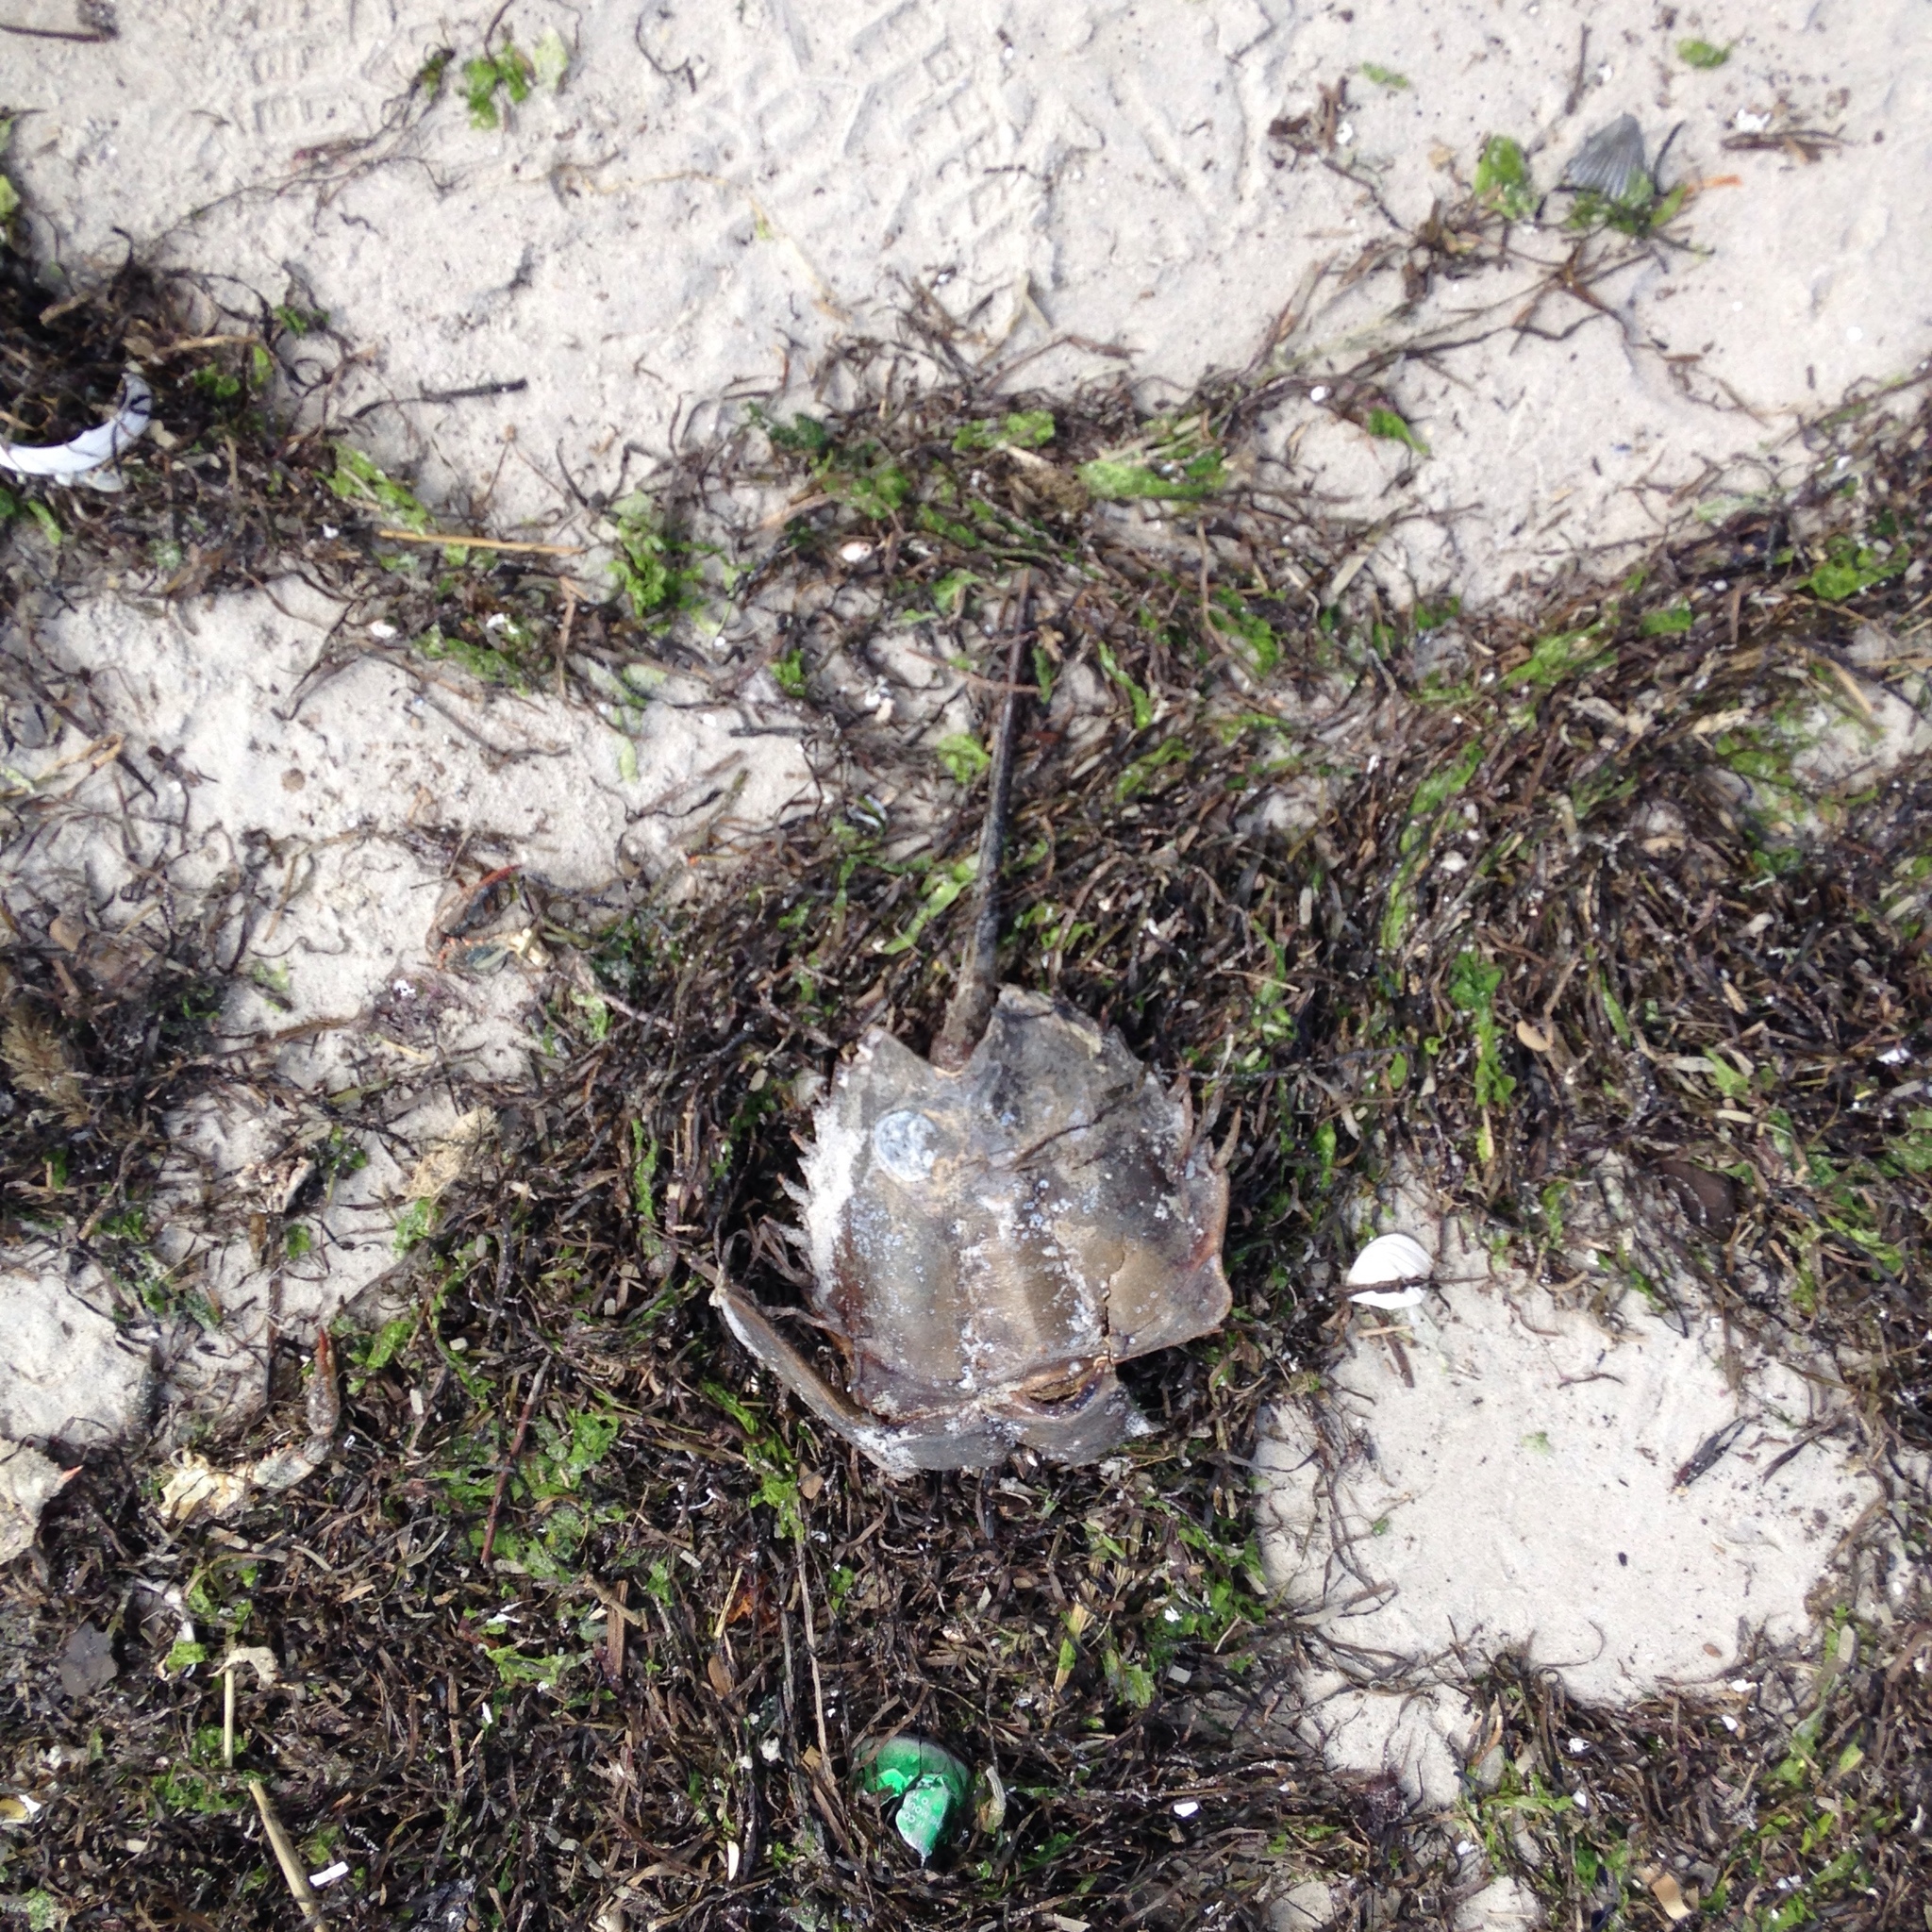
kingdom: Animalia
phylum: Arthropoda
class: Merostomata
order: Xiphosurida
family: Limulidae
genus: Limulus
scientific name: Limulus polyphemus
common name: Horseshoe crab
